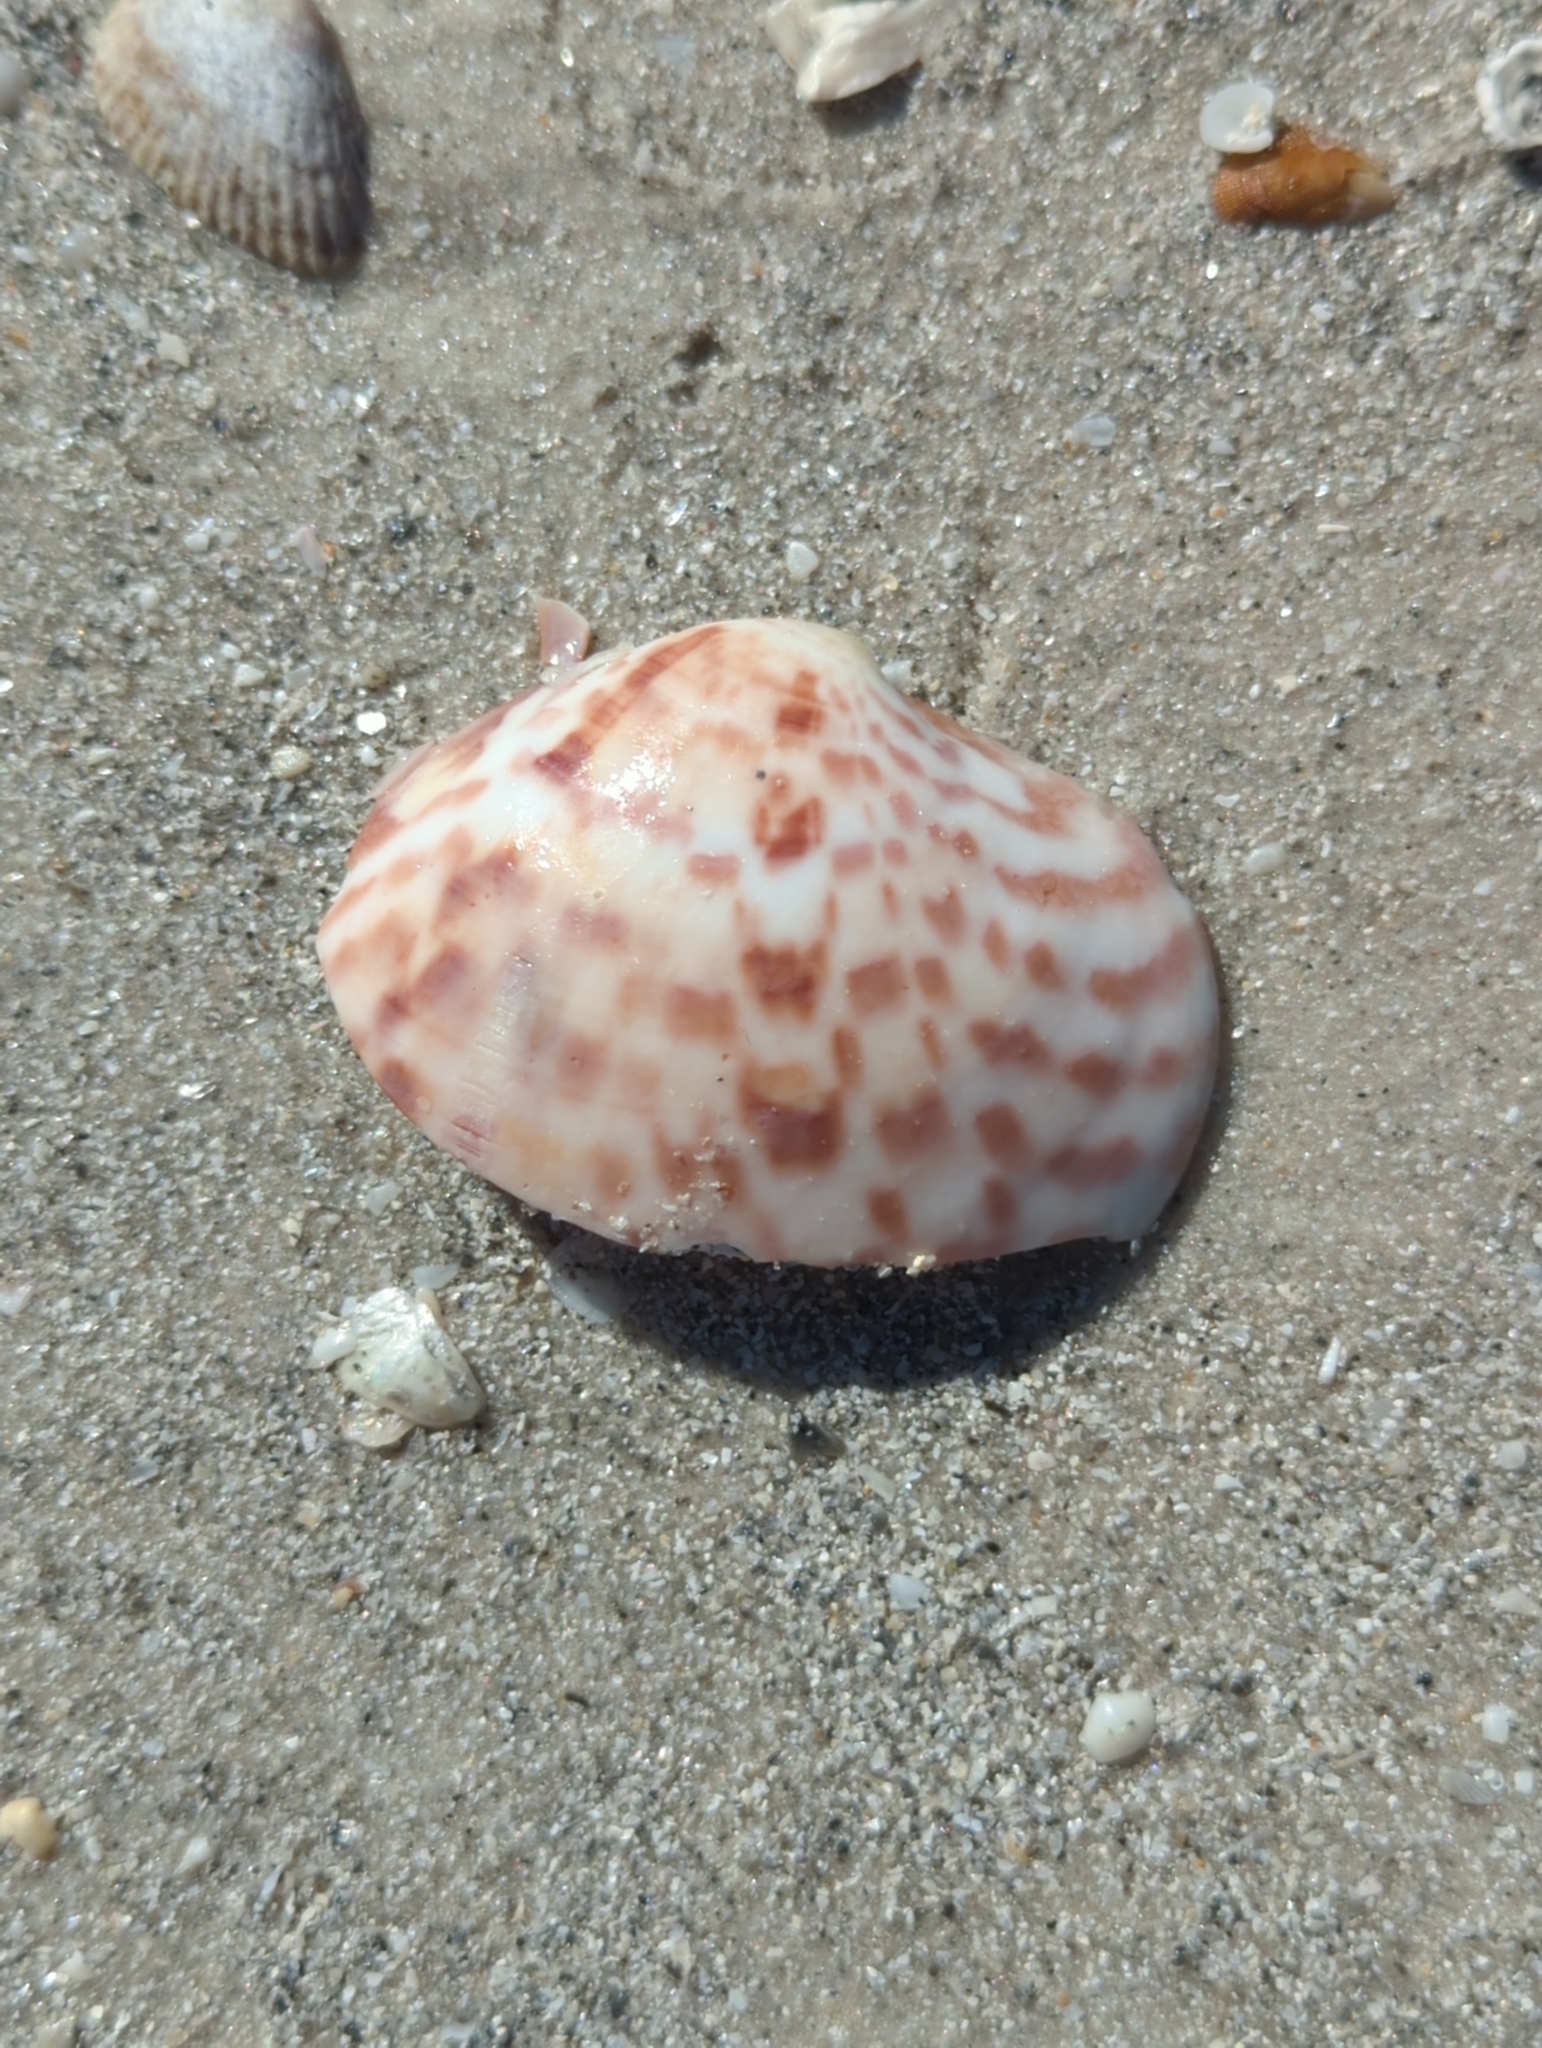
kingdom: Animalia
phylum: Mollusca
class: Bivalvia
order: Venerida
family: Veneridae
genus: Megapitaria
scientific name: Megapitaria maculata
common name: Calico clam
